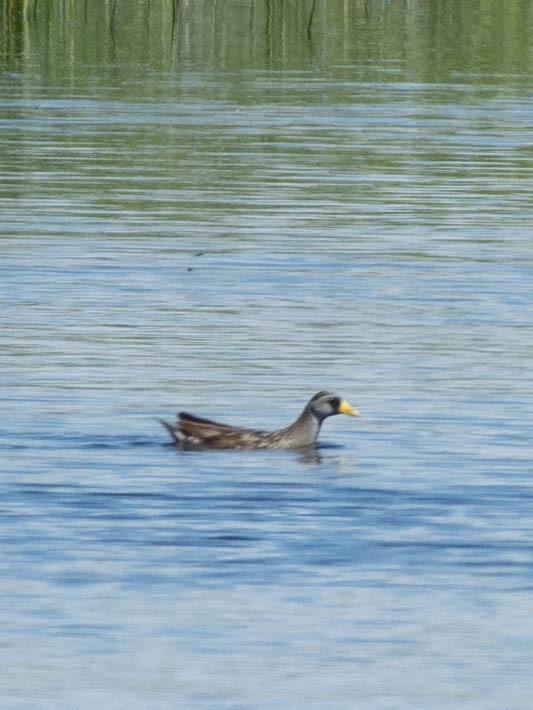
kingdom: Animalia
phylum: Chordata
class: Aves
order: Gruiformes
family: Rallidae
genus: Porzana
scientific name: Porzana carolina
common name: Sora
